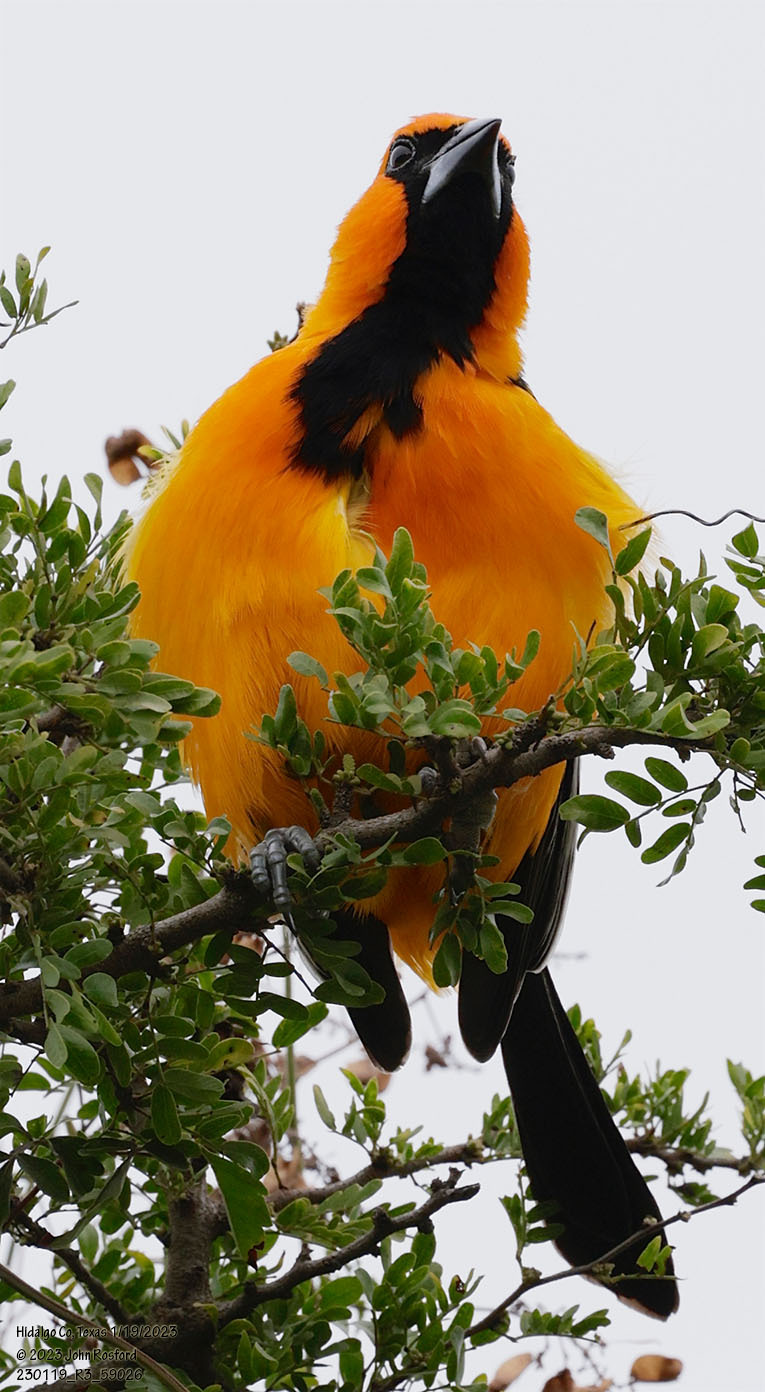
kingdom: Animalia
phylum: Chordata
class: Aves
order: Passeriformes
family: Icteridae
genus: Icterus
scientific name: Icterus gularis
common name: Altamira oriole
